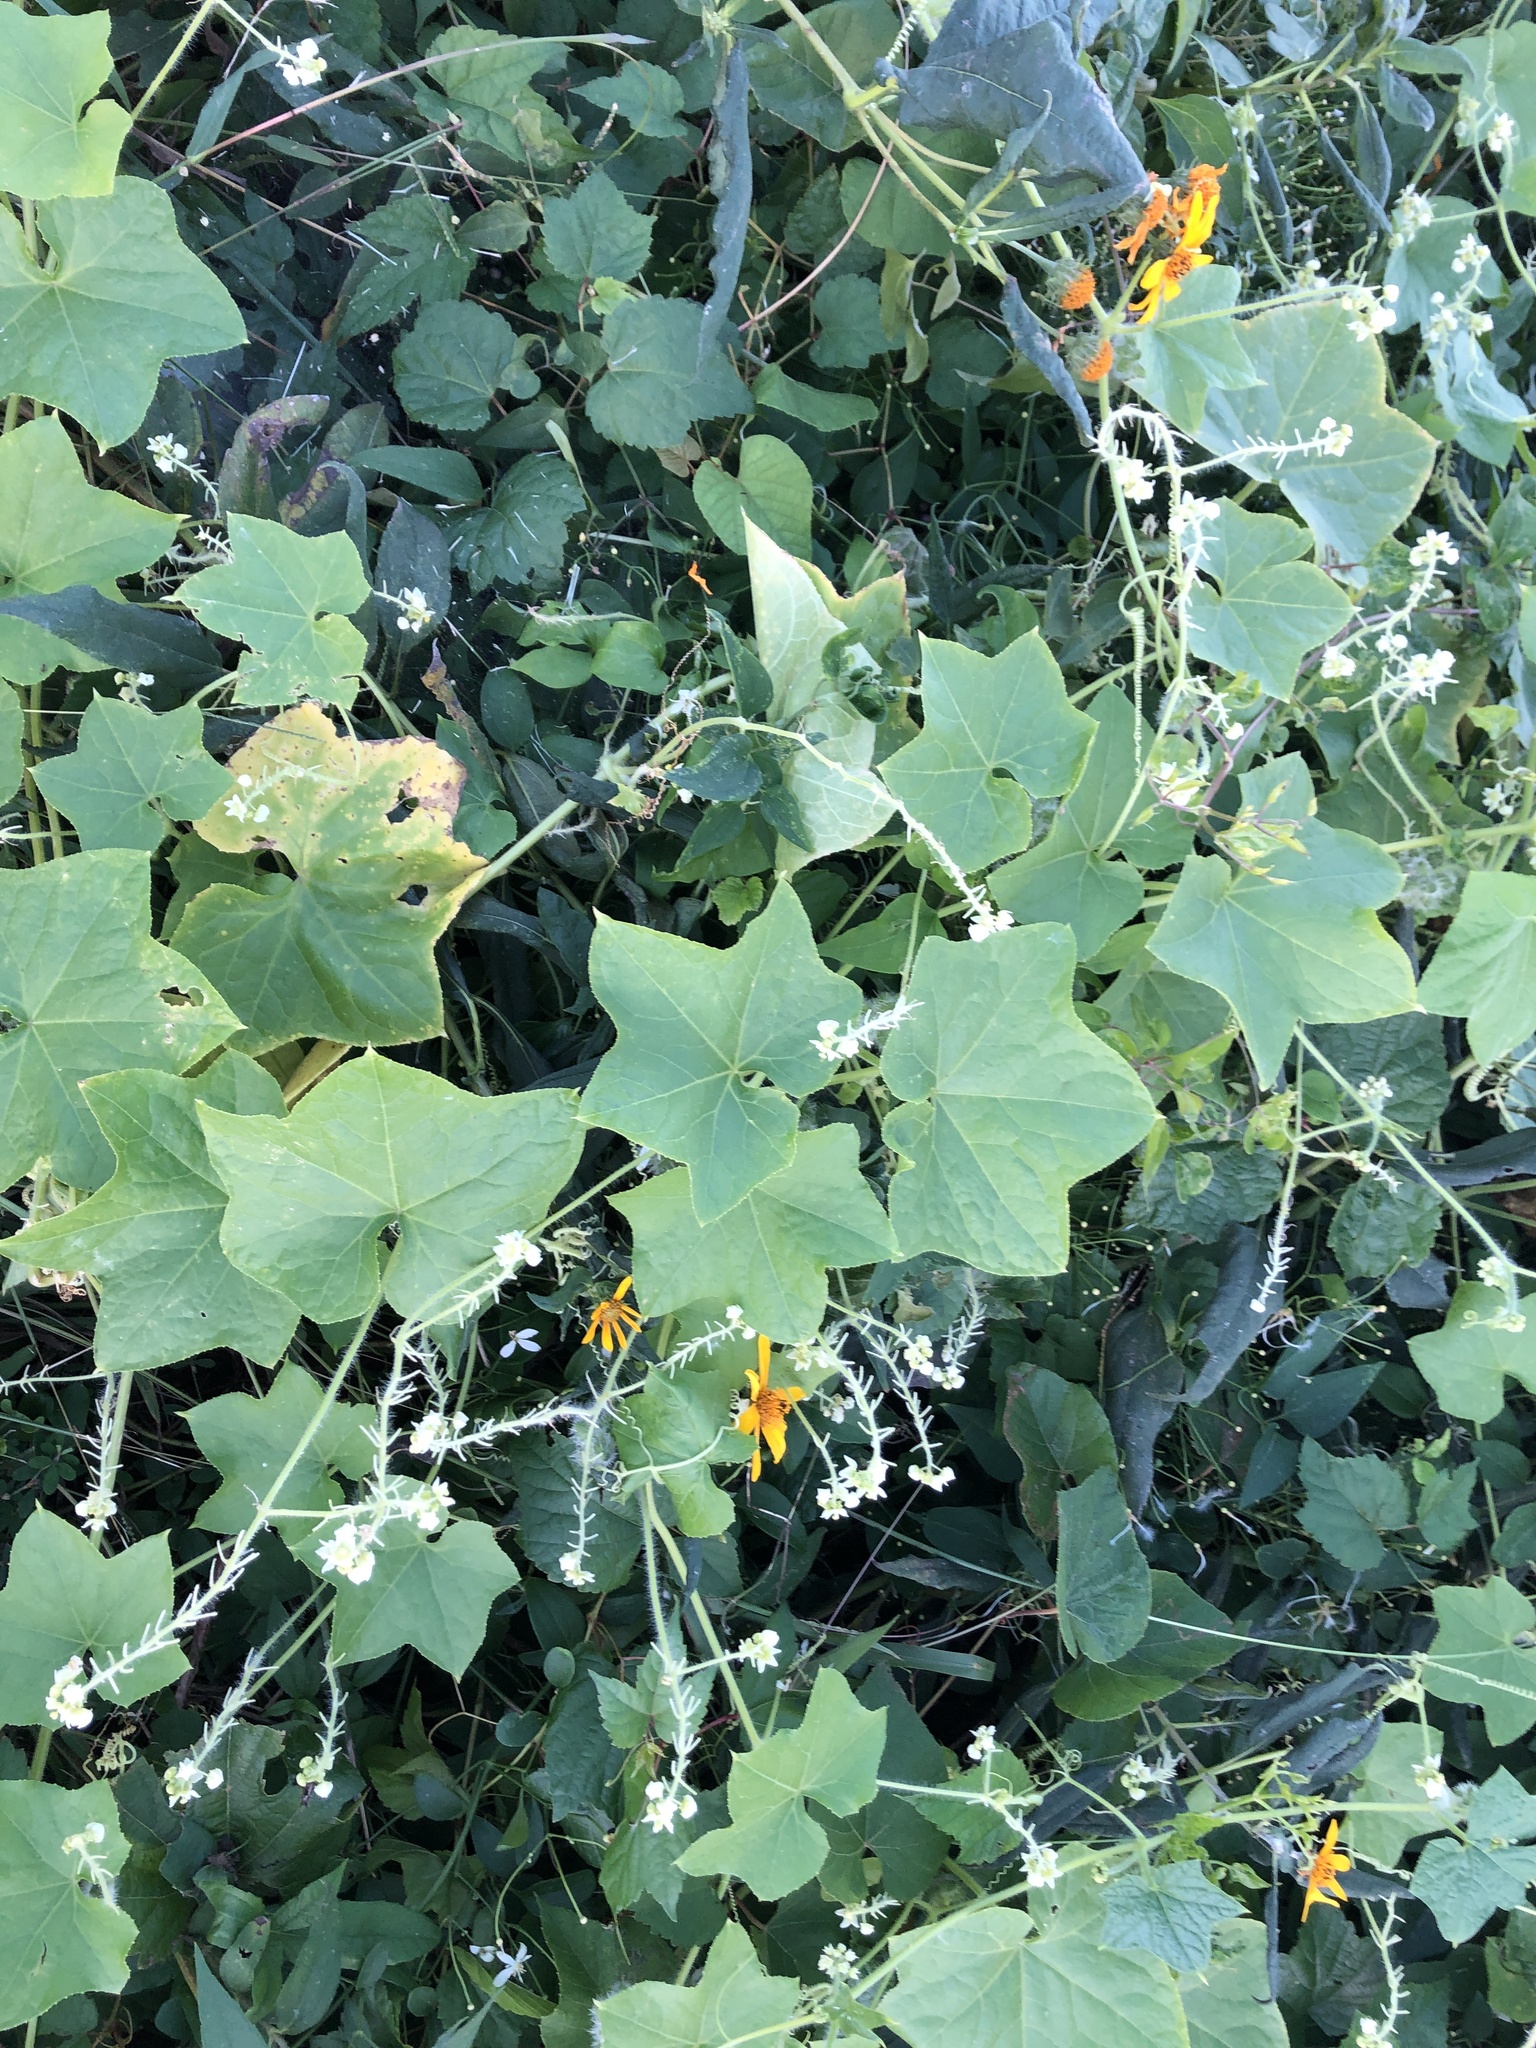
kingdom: Plantae
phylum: Tracheophyta
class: Magnoliopsida
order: Cucurbitales
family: Cucurbitaceae
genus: Sicyos
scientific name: Sicyos angulatus
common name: Angled burr cucumber
